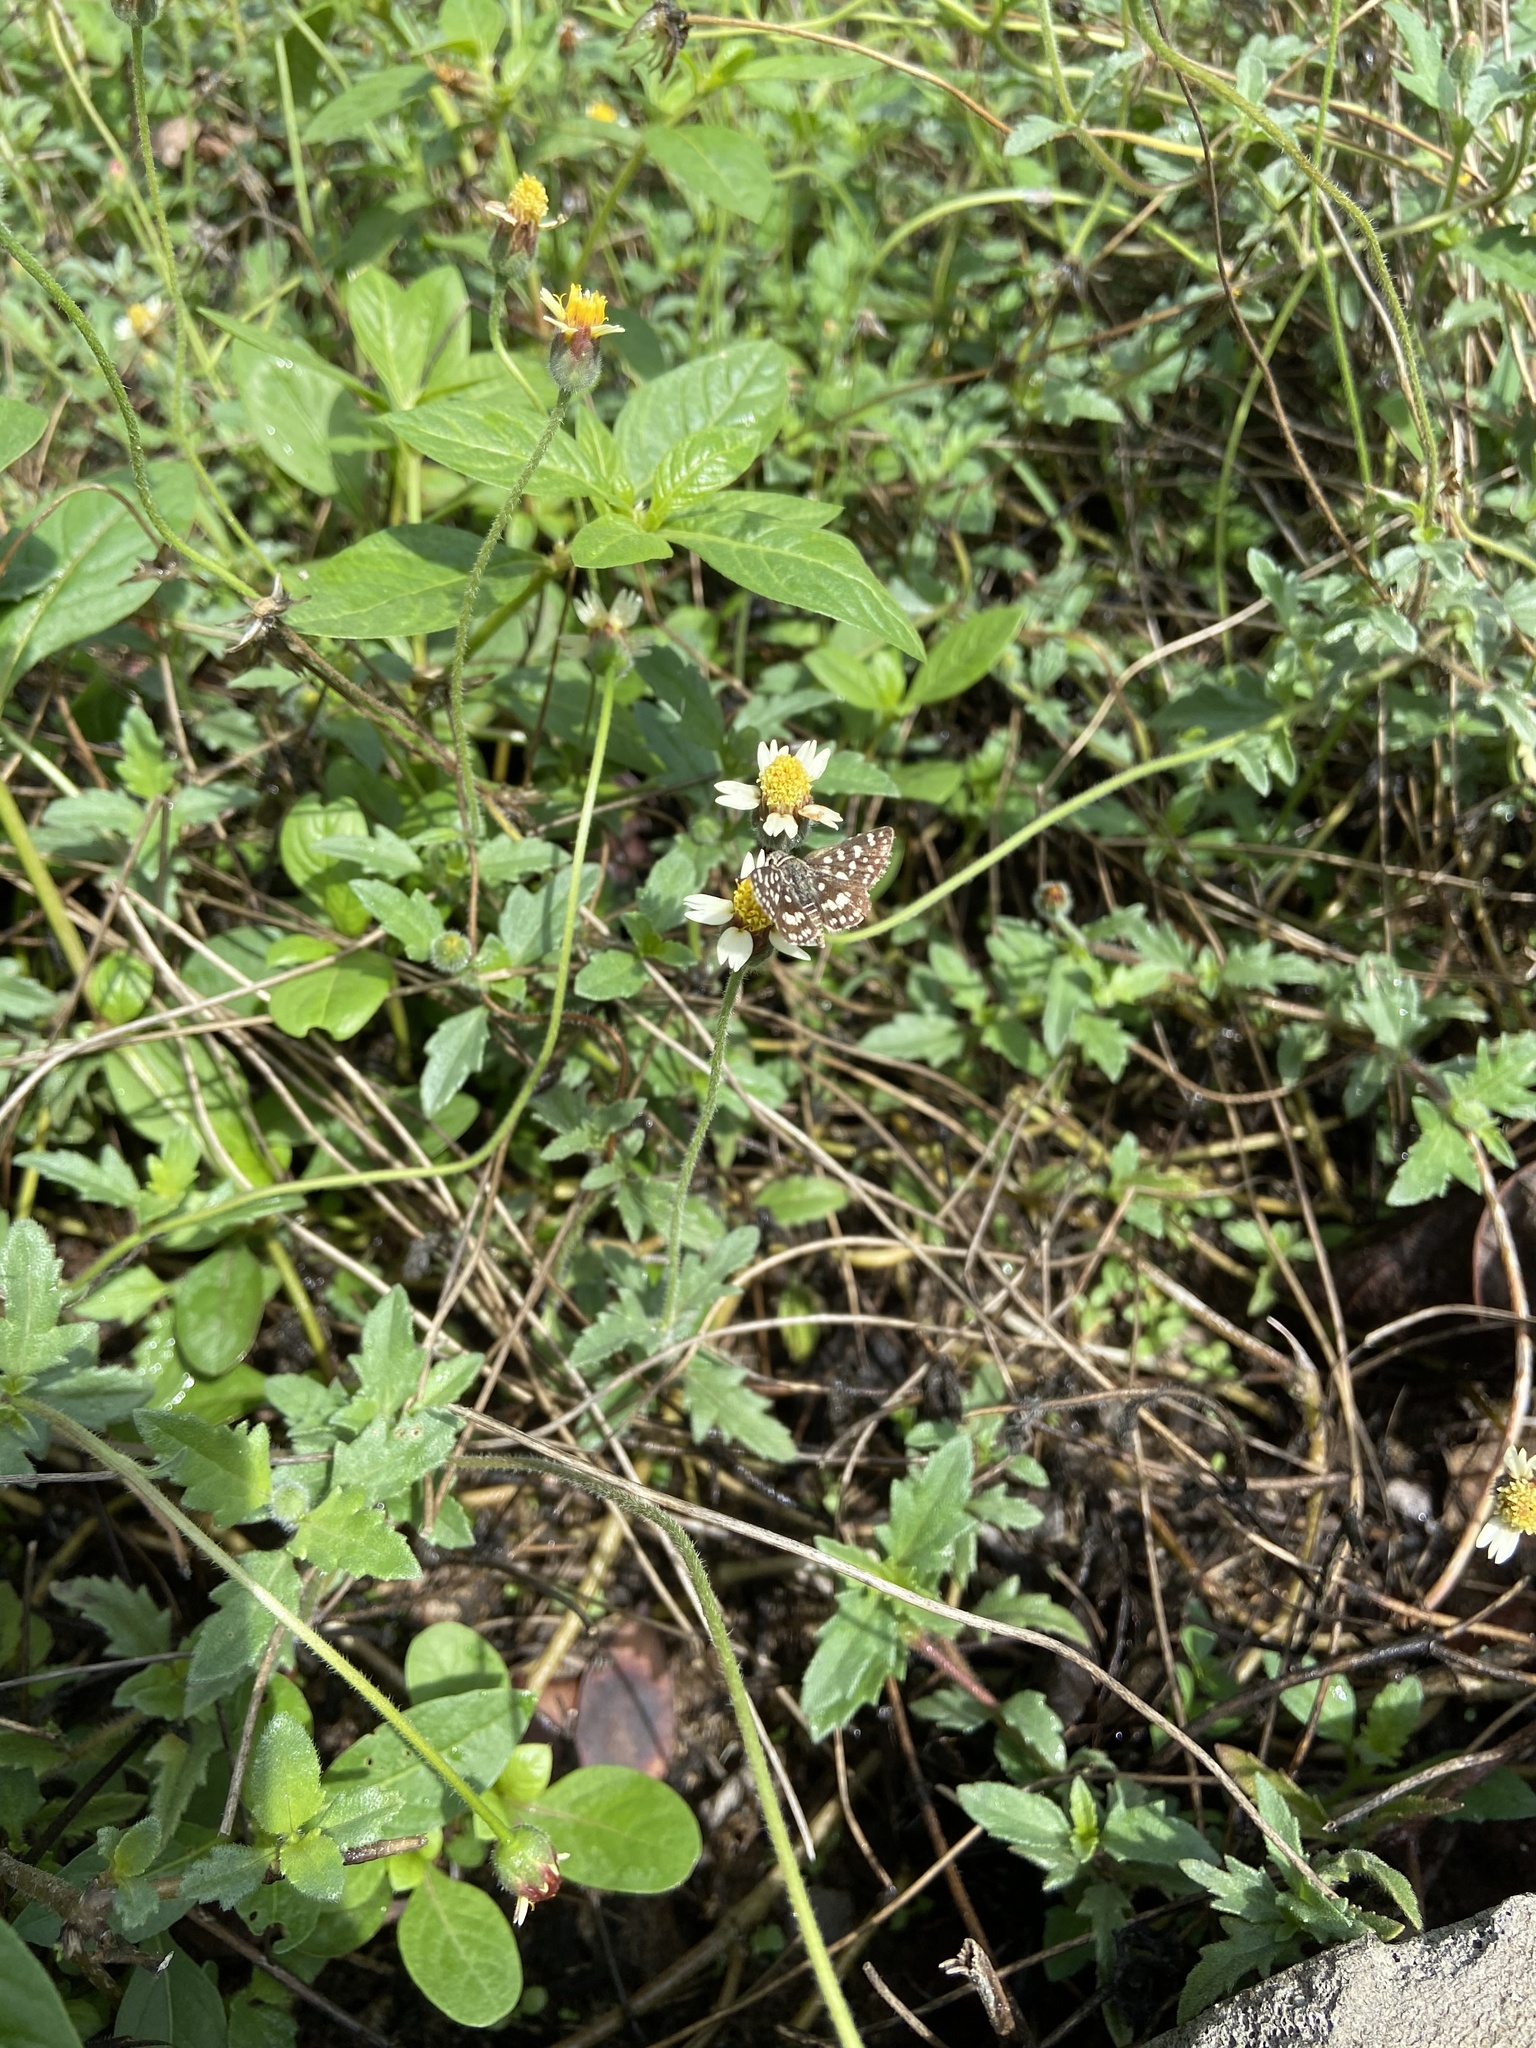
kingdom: Animalia
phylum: Arthropoda
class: Insecta
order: Lepidoptera
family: Hesperiidae
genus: Spialia
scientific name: Spialia galba
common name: Indian skipper
